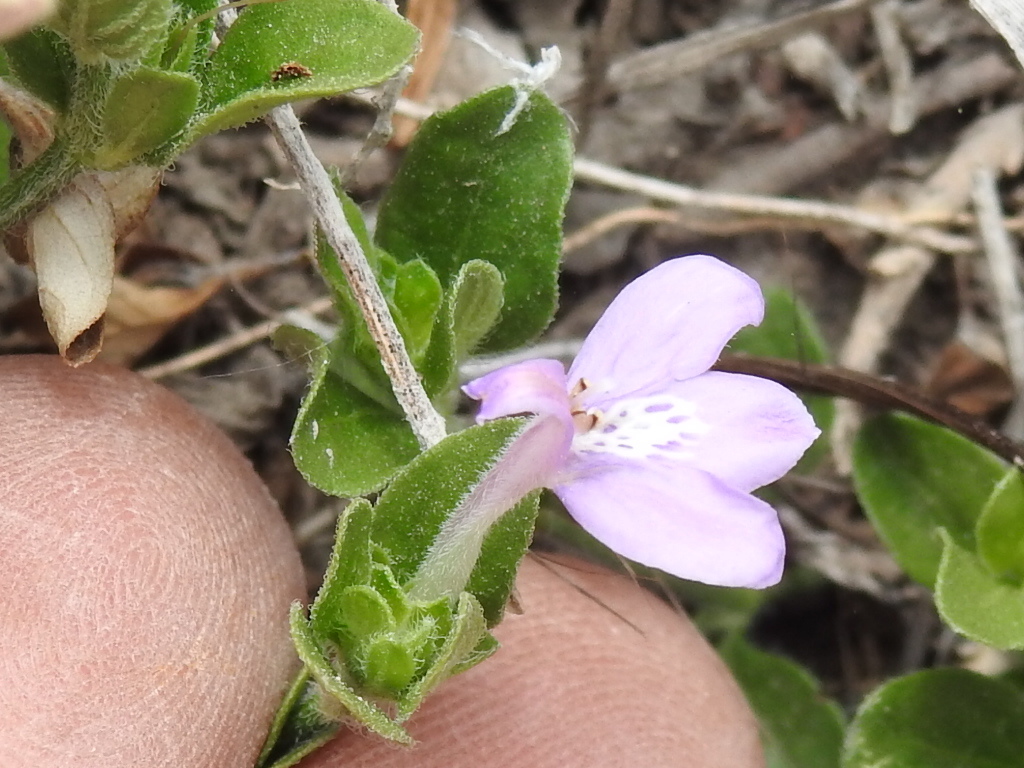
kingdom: Plantae
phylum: Tracheophyta
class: Magnoliopsida
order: Lamiales
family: Acanthaceae
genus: Justicia
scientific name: Justicia pilosella
